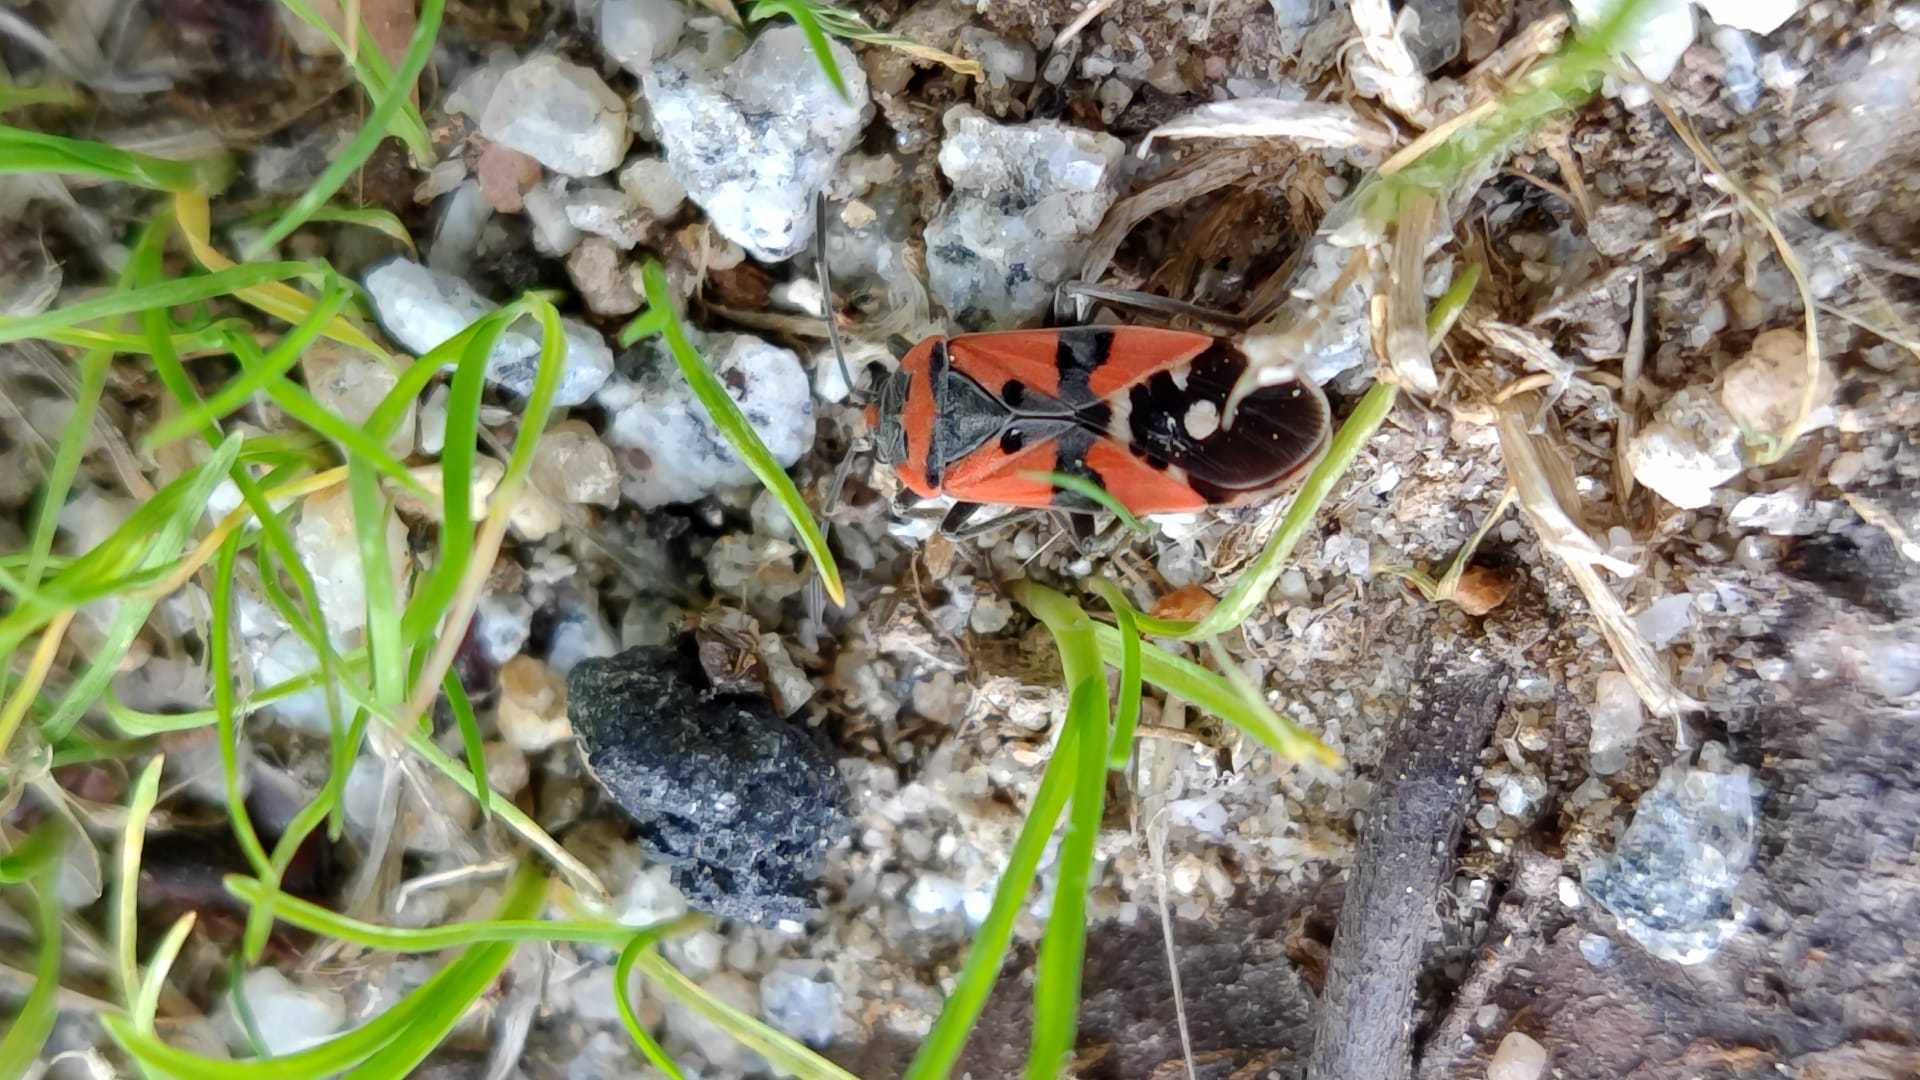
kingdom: Animalia
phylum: Arthropoda
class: Insecta
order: Hemiptera
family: Lygaeidae
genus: Lygaeus
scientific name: Lygaeus equestris
